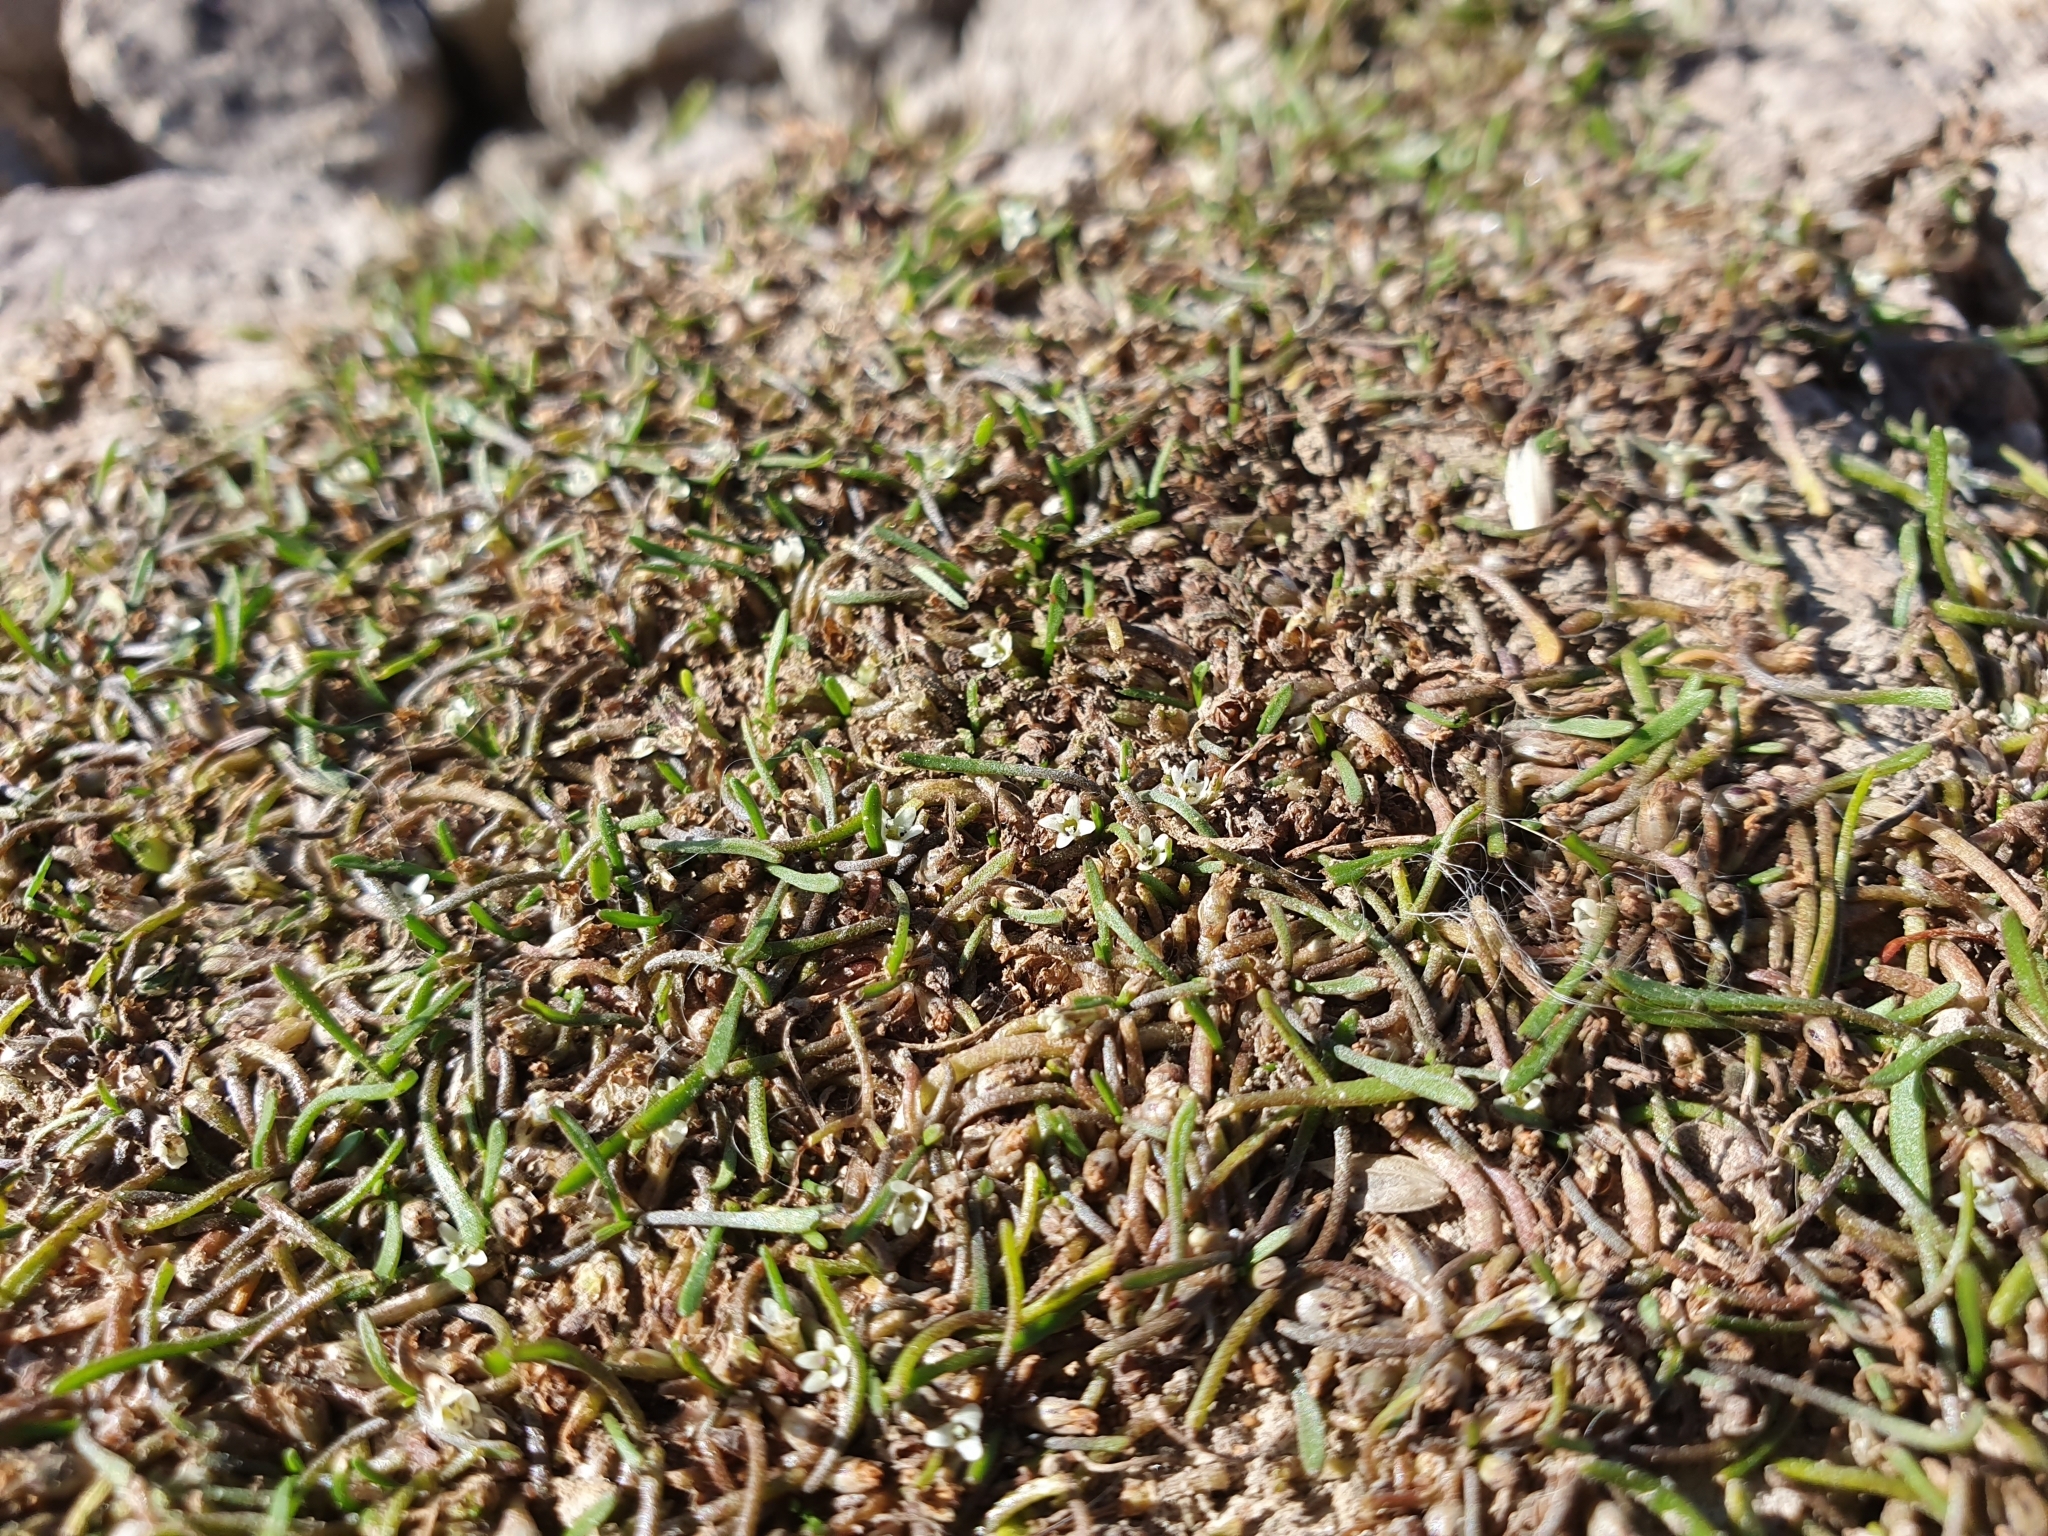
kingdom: Plantae
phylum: Tracheophyta
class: Magnoliopsida
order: Lamiales
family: Scrophulariaceae
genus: Limosella
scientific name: Limosella australis
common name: Welsh mudwort
